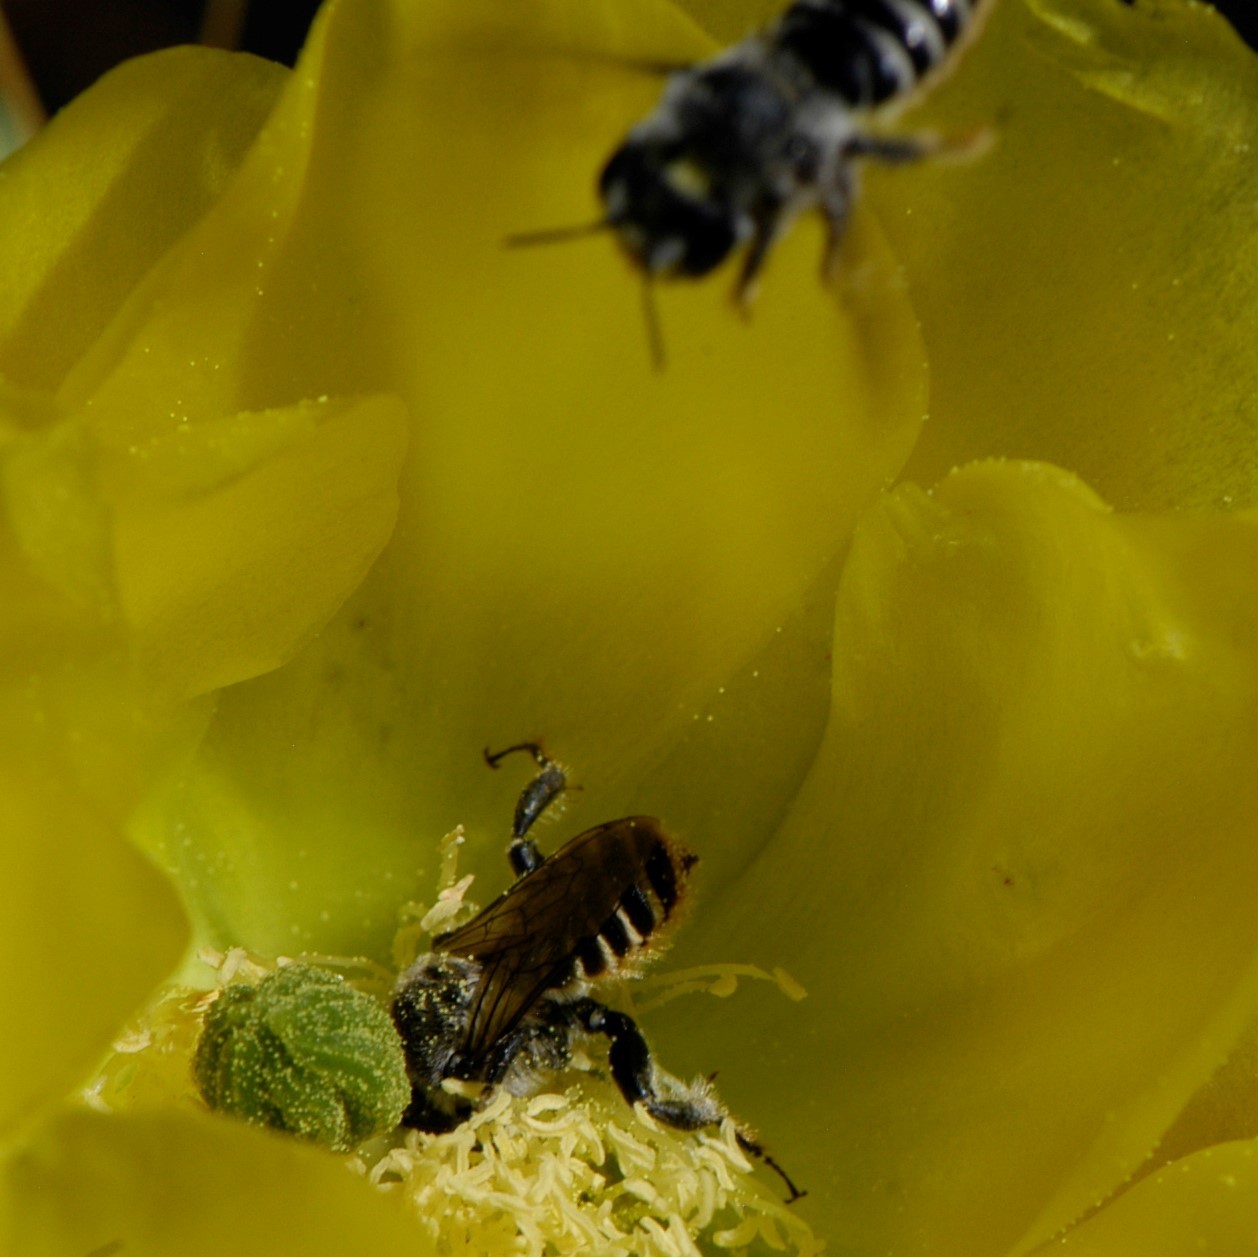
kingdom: Animalia
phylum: Arthropoda
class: Insecta
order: Hymenoptera
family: Megachilidae
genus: Lithurgopsis
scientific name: Lithurgopsis apicalis
